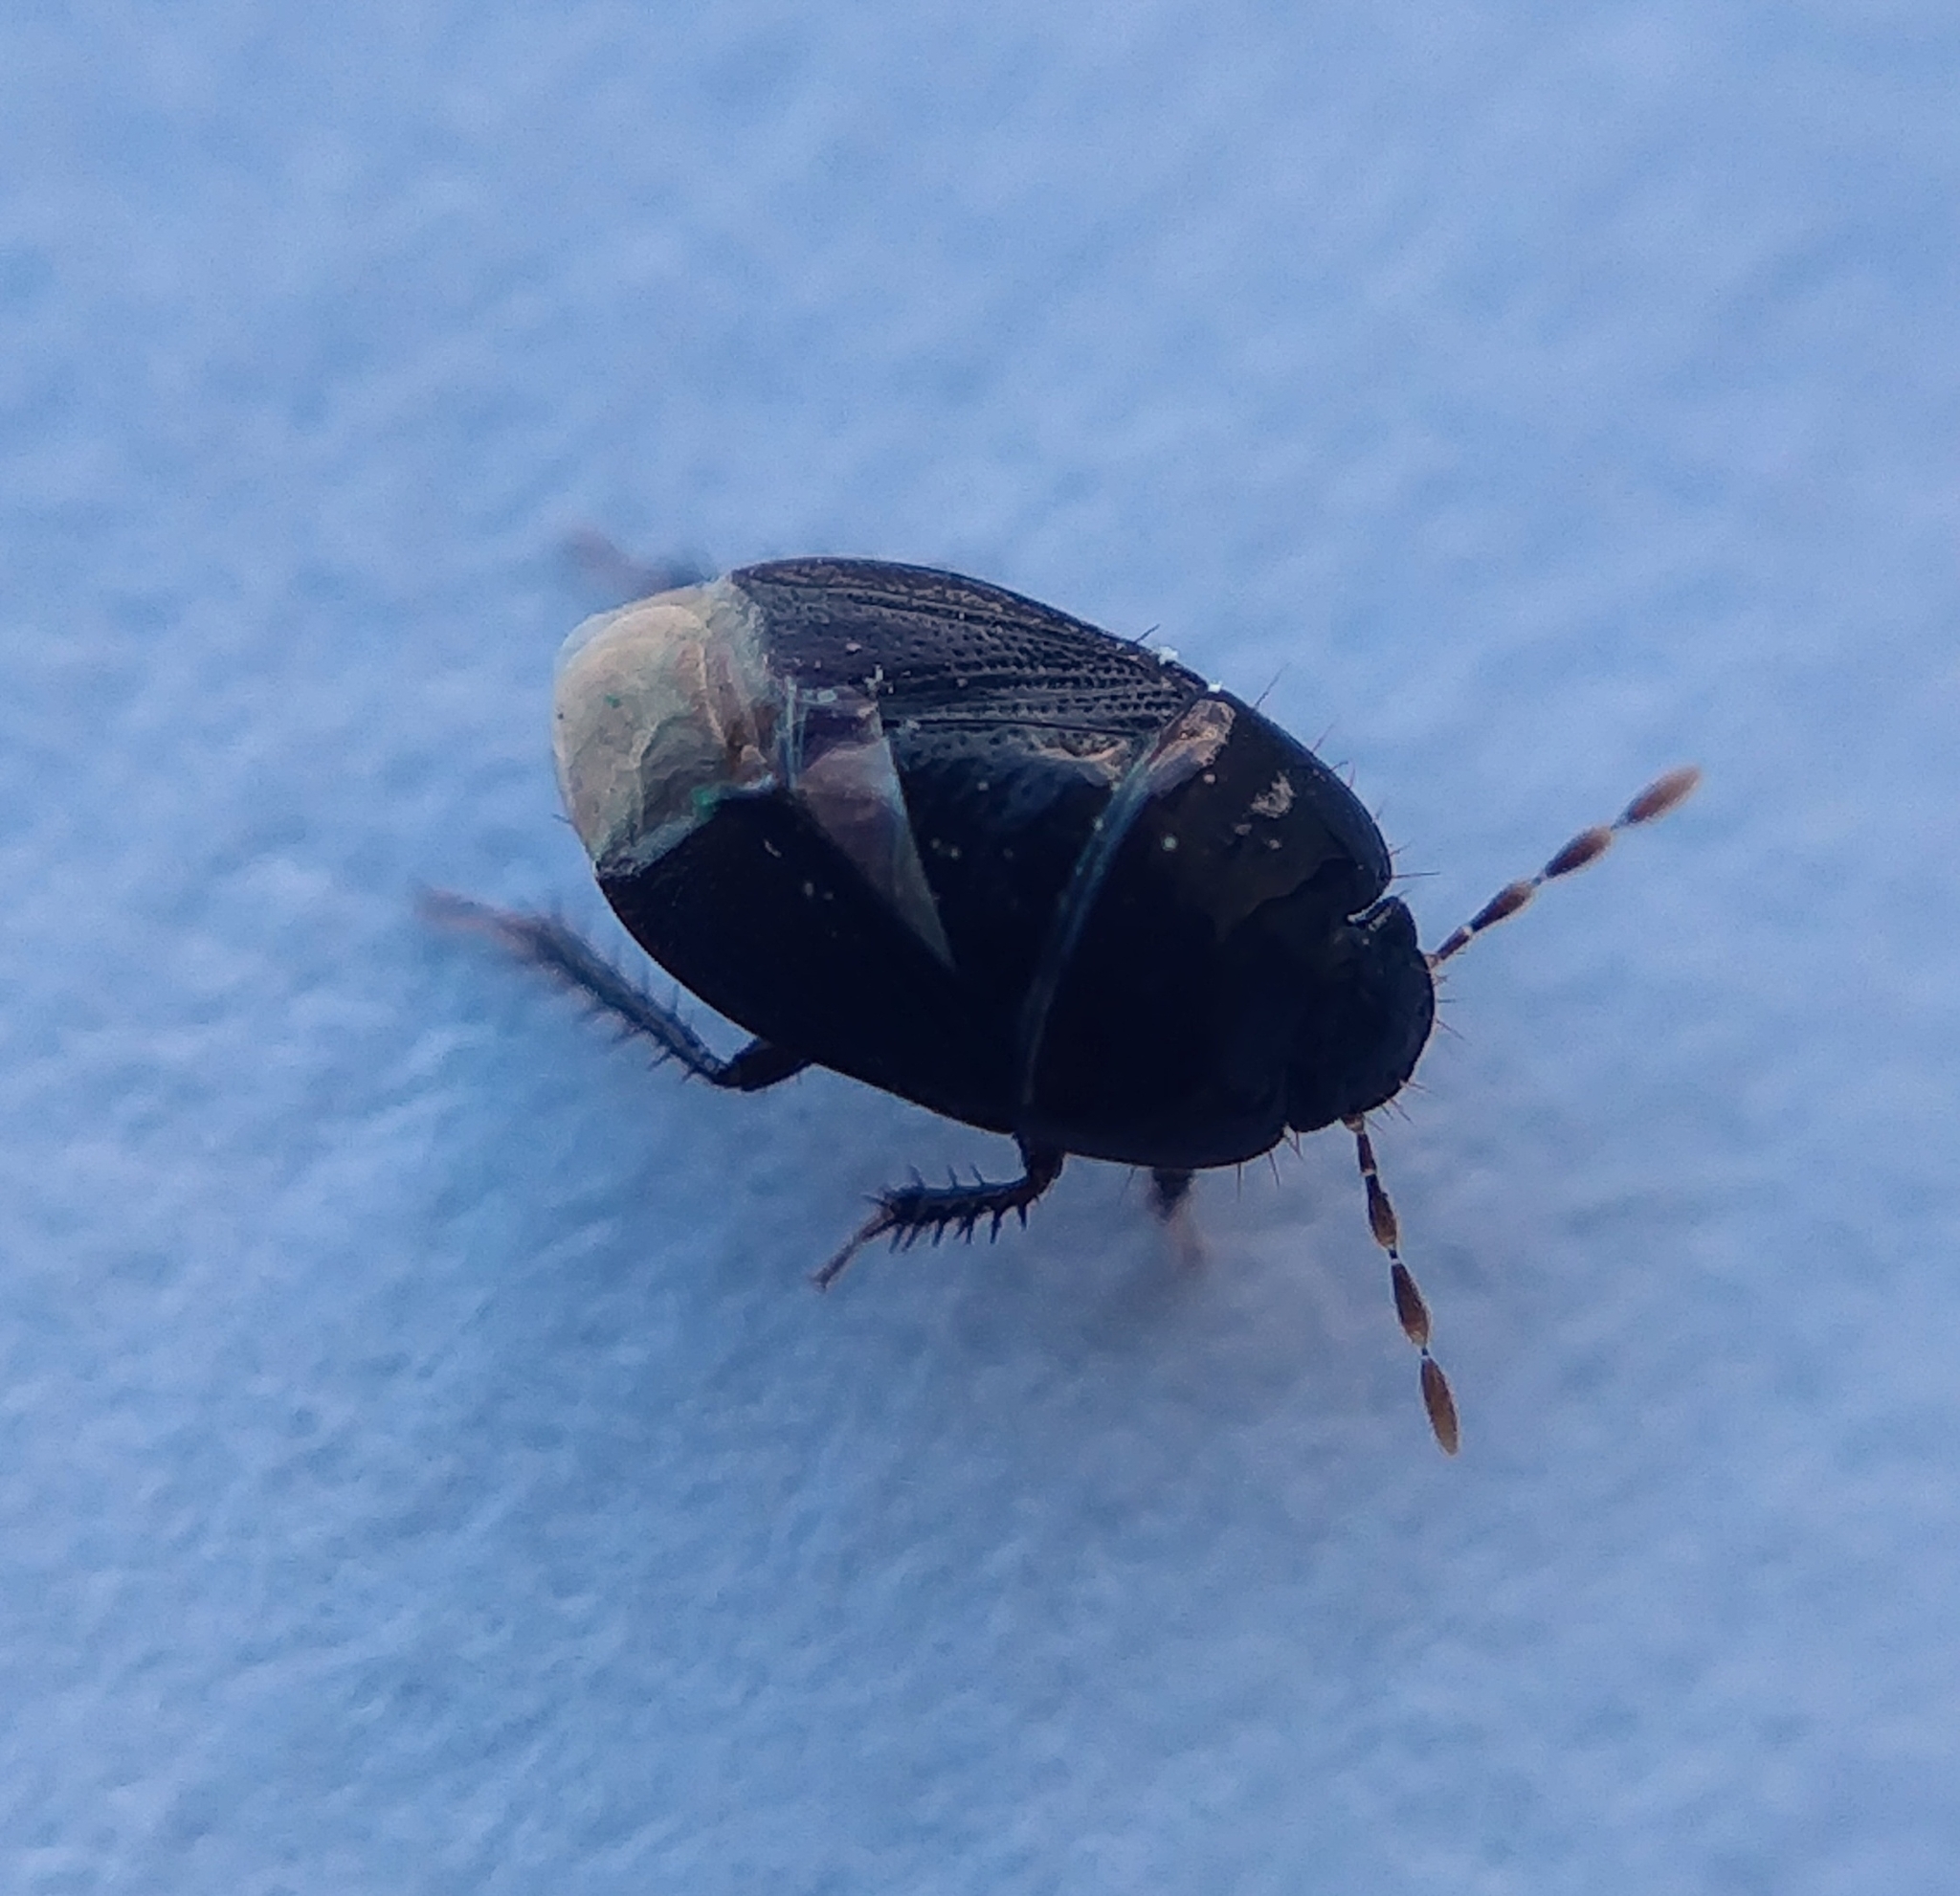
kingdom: Animalia
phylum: Arthropoda
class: Insecta
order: Hemiptera
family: Cydnidae
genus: Macroscytus
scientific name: Macroscytus brunneus
